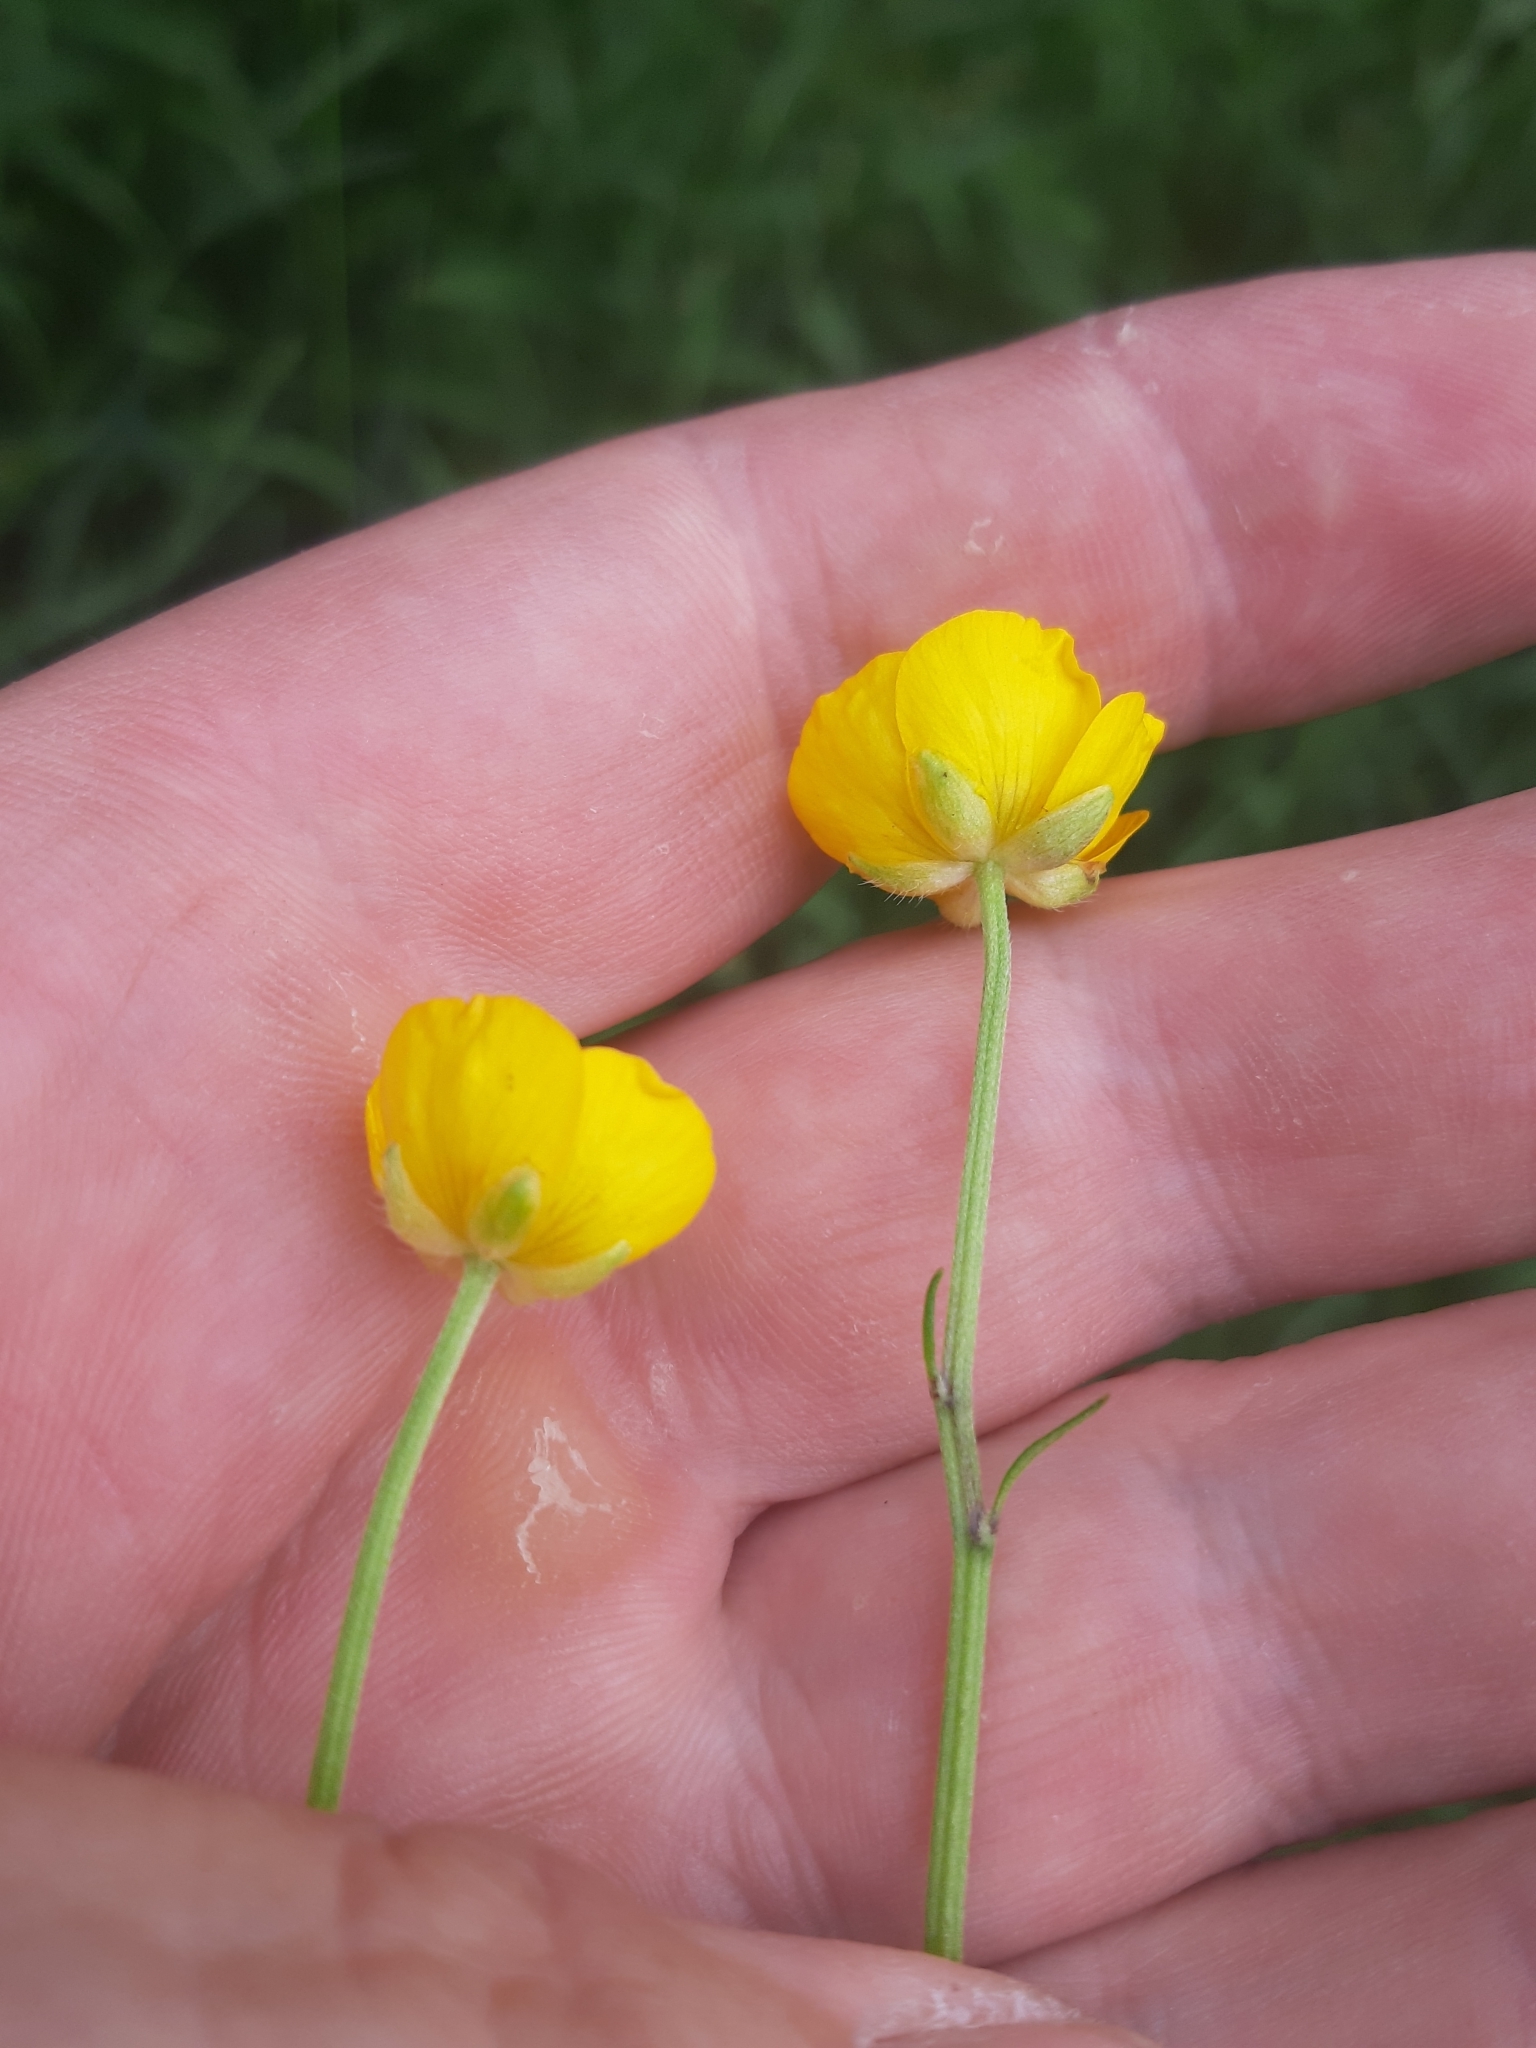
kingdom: Plantae
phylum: Tracheophyta
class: Magnoliopsida
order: Ranunculales
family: Ranunculaceae
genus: Ranunculus
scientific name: Ranunculus repens
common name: Creeping buttercup
